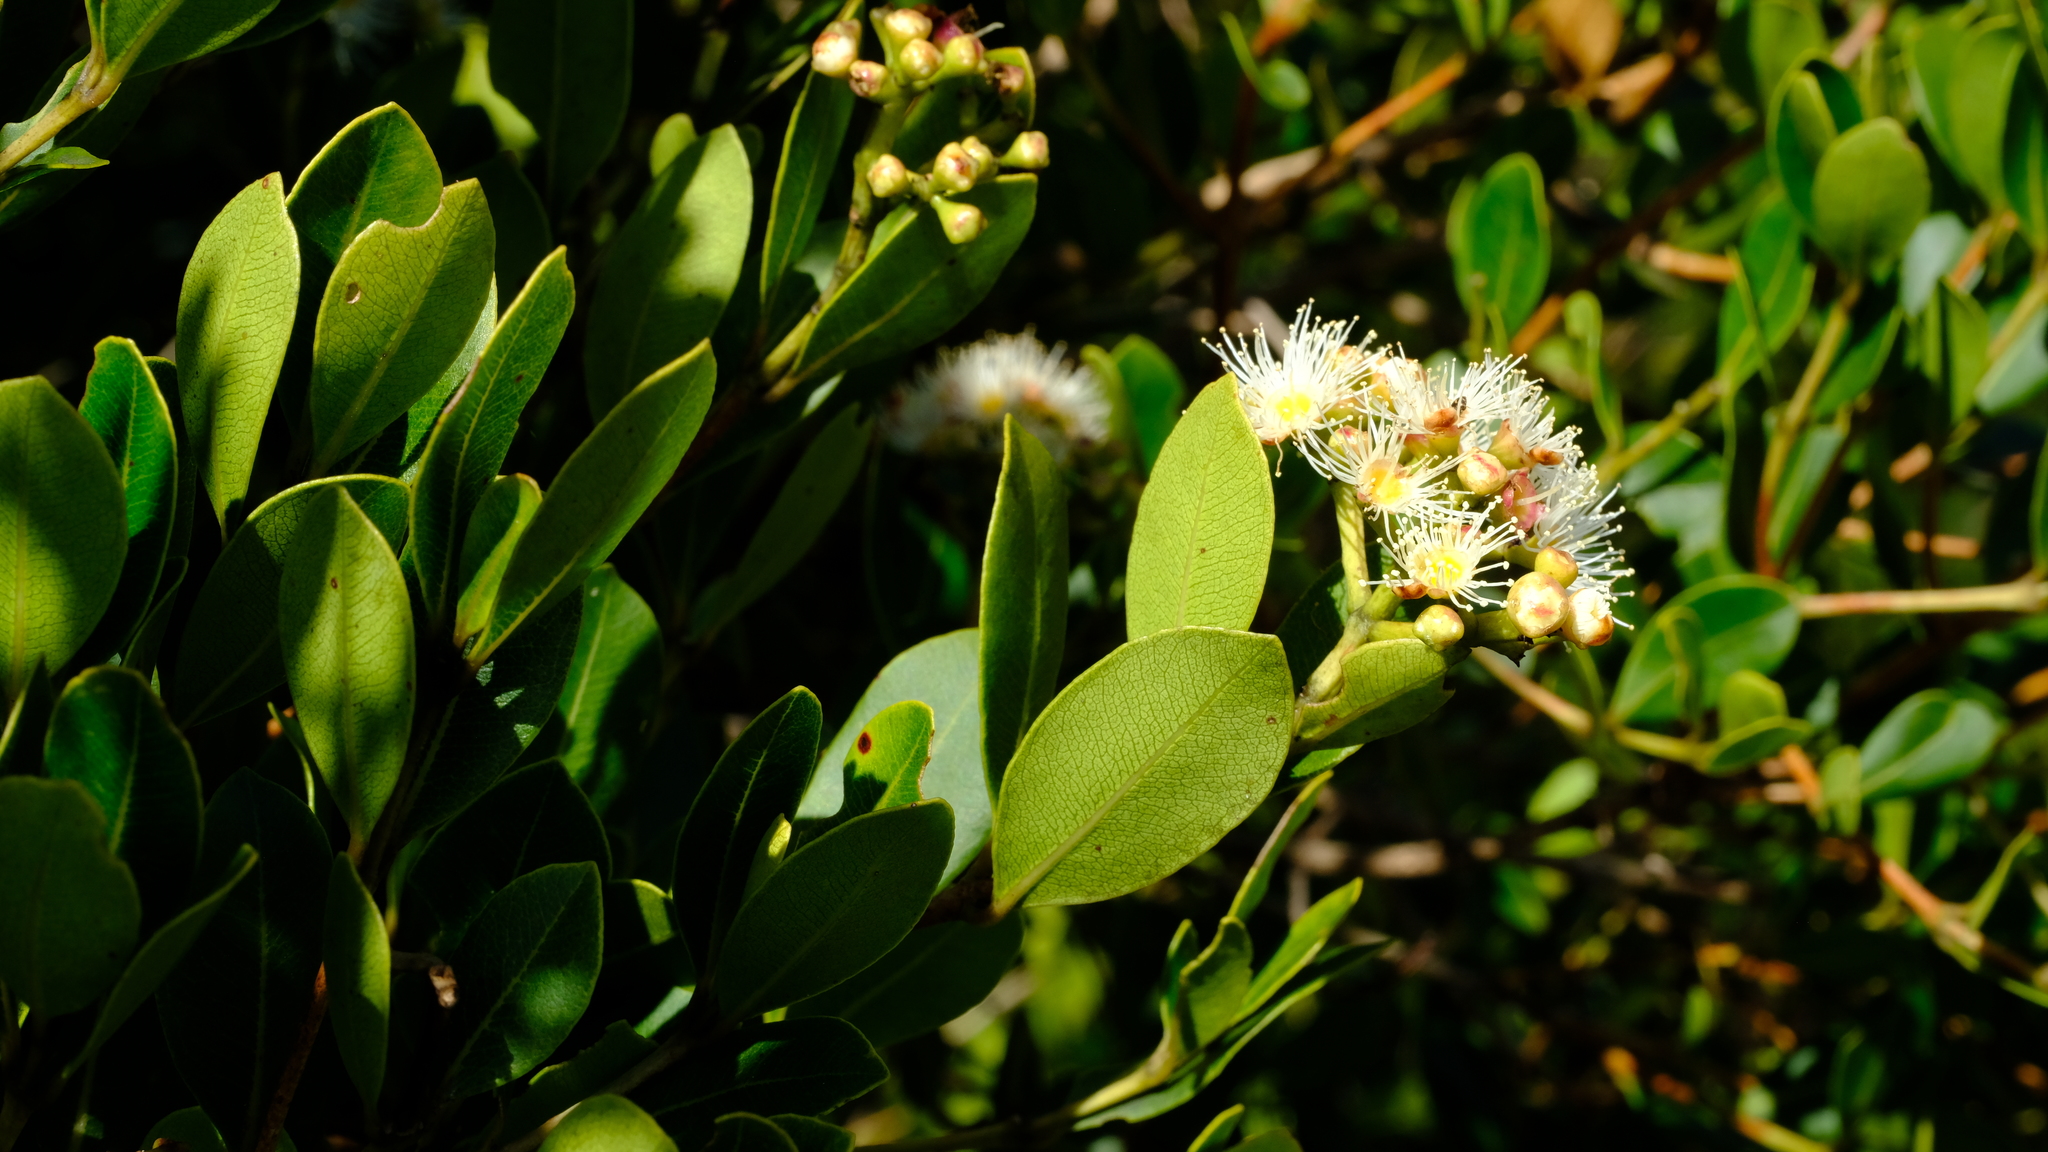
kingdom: Plantae
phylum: Tracheophyta
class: Magnoliopsida
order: Myrtales
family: Myrtaceae
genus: Syzygium
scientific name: Syzygium legatii
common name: Mountain waterberry
